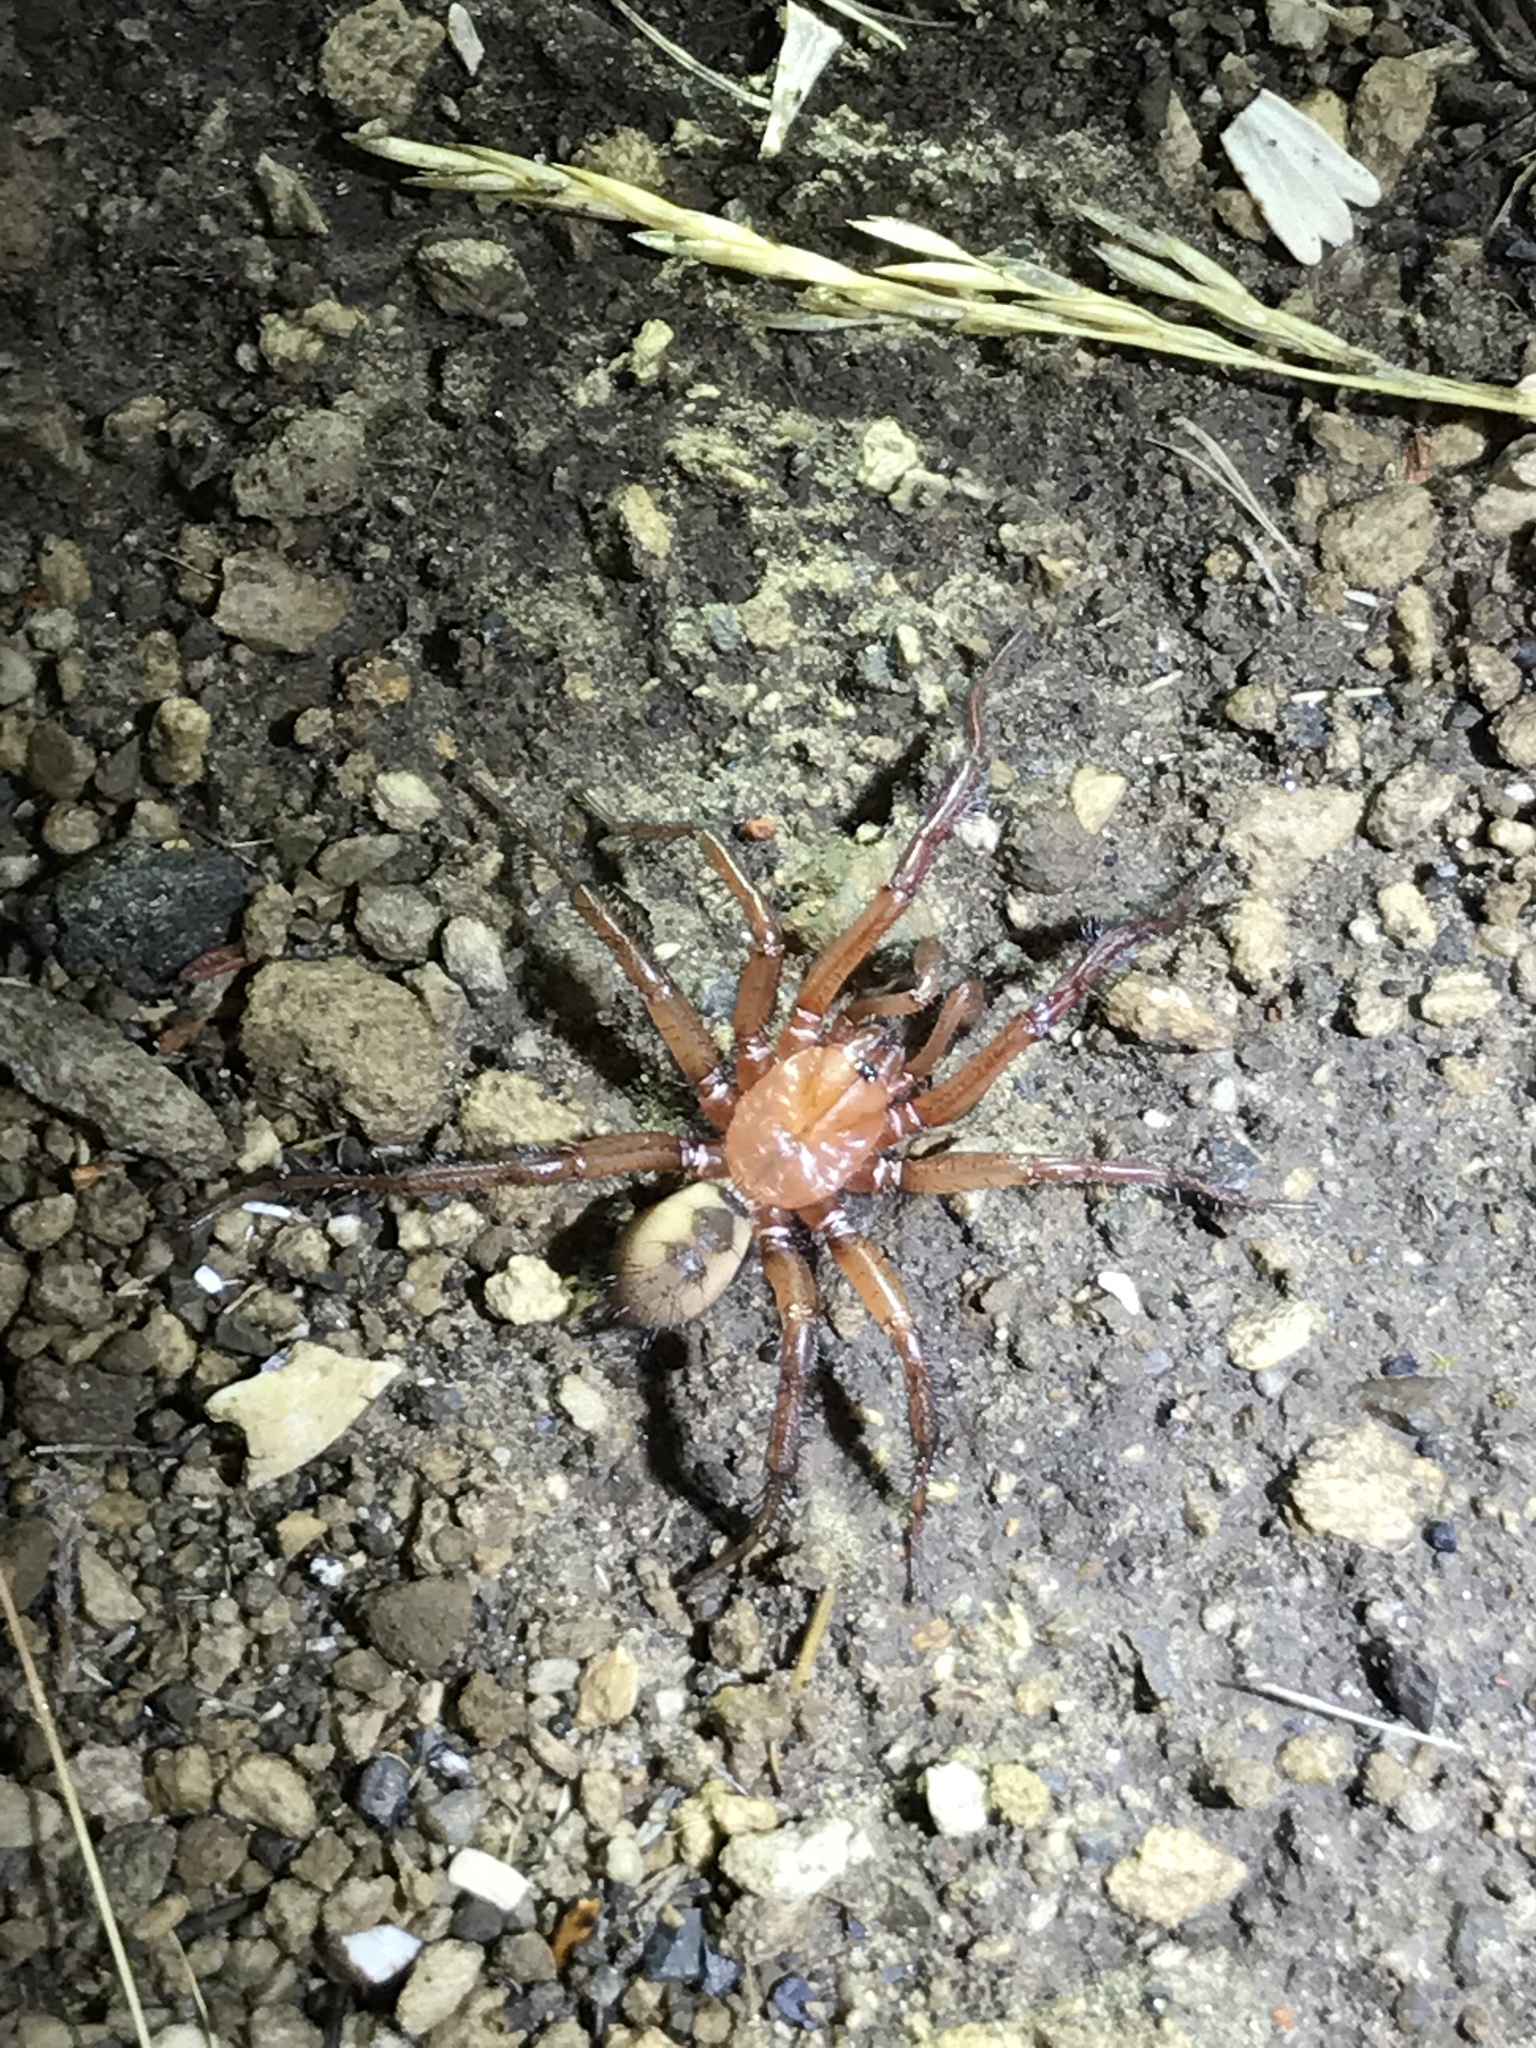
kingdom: Animalia
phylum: Chordata
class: Squamata
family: Scincidae
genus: Plestiodon
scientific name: Plestiodon skiltonianus
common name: Coronado island skink [interparietalis]
